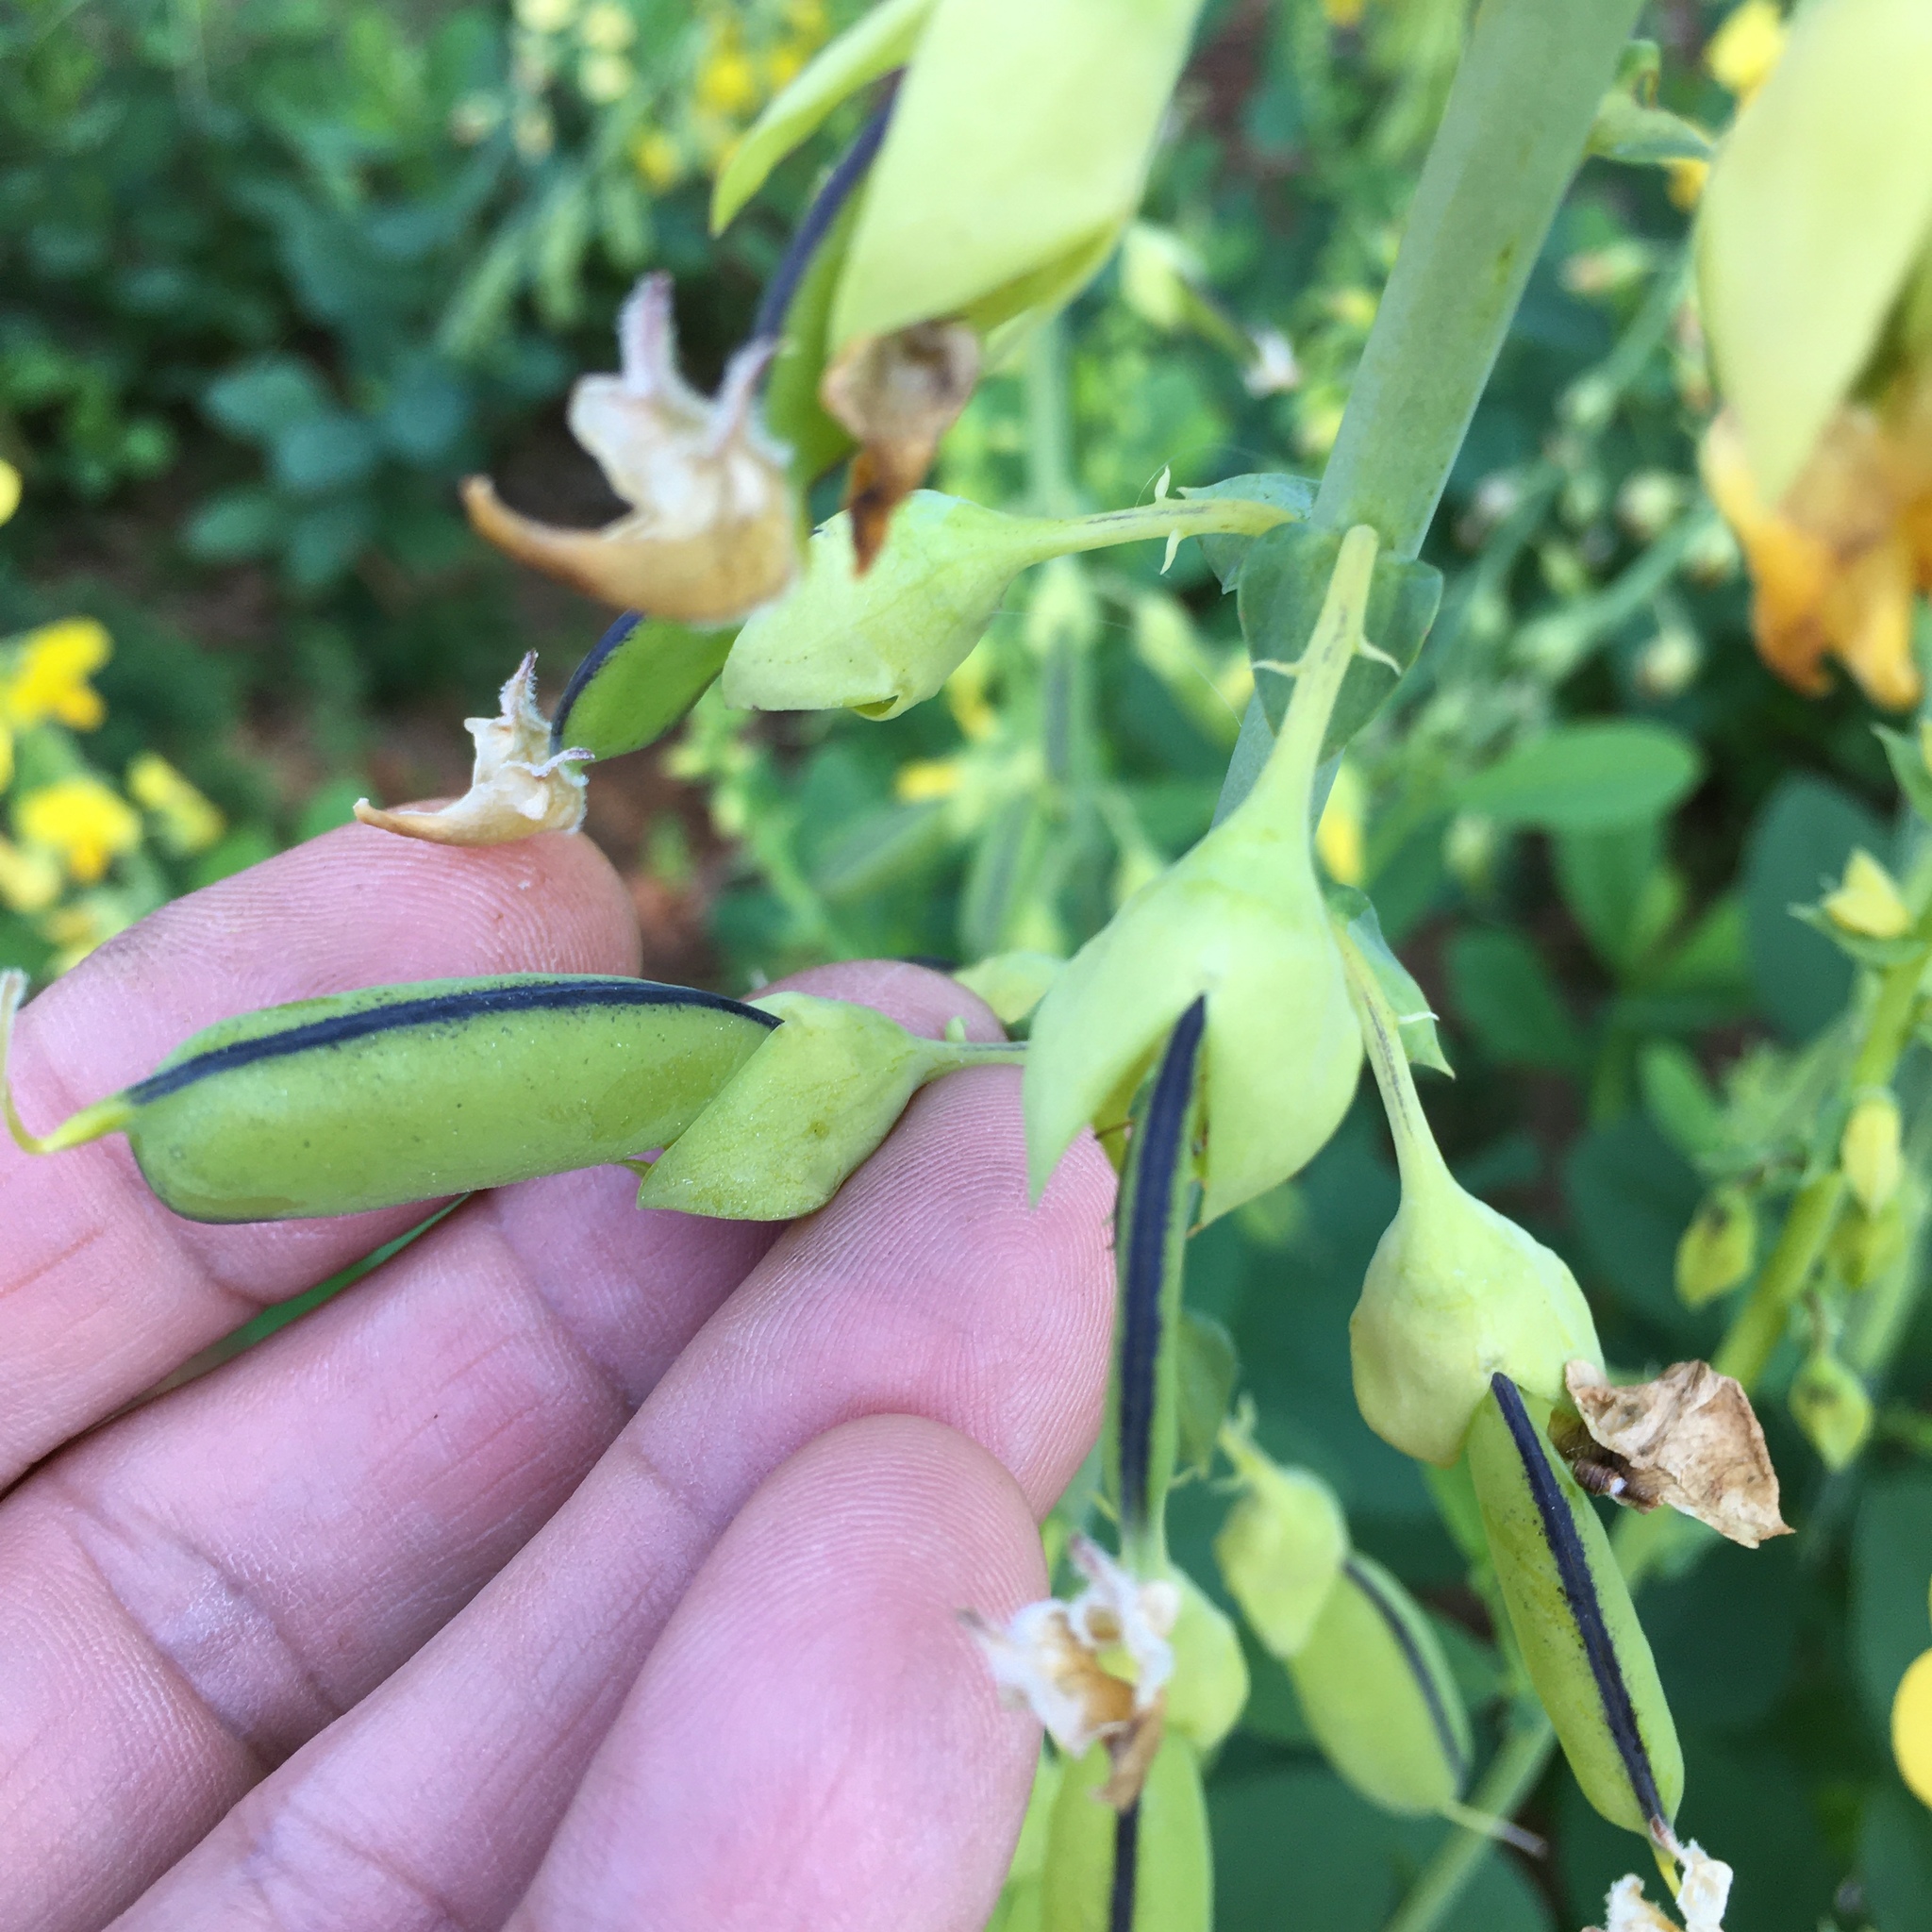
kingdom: Plantae
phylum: Tracheophyta
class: Magnoliopsida
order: Fabales
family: Fabaceae
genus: Crotalaria
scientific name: Crotalaria spectabilis
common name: Showy rattlebox
